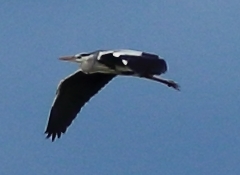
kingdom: Animalia
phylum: Chordata
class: Aves
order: Pelecaniformes
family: Ardeidae
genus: Ardea
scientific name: Ardea cinerea
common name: Grey heron
